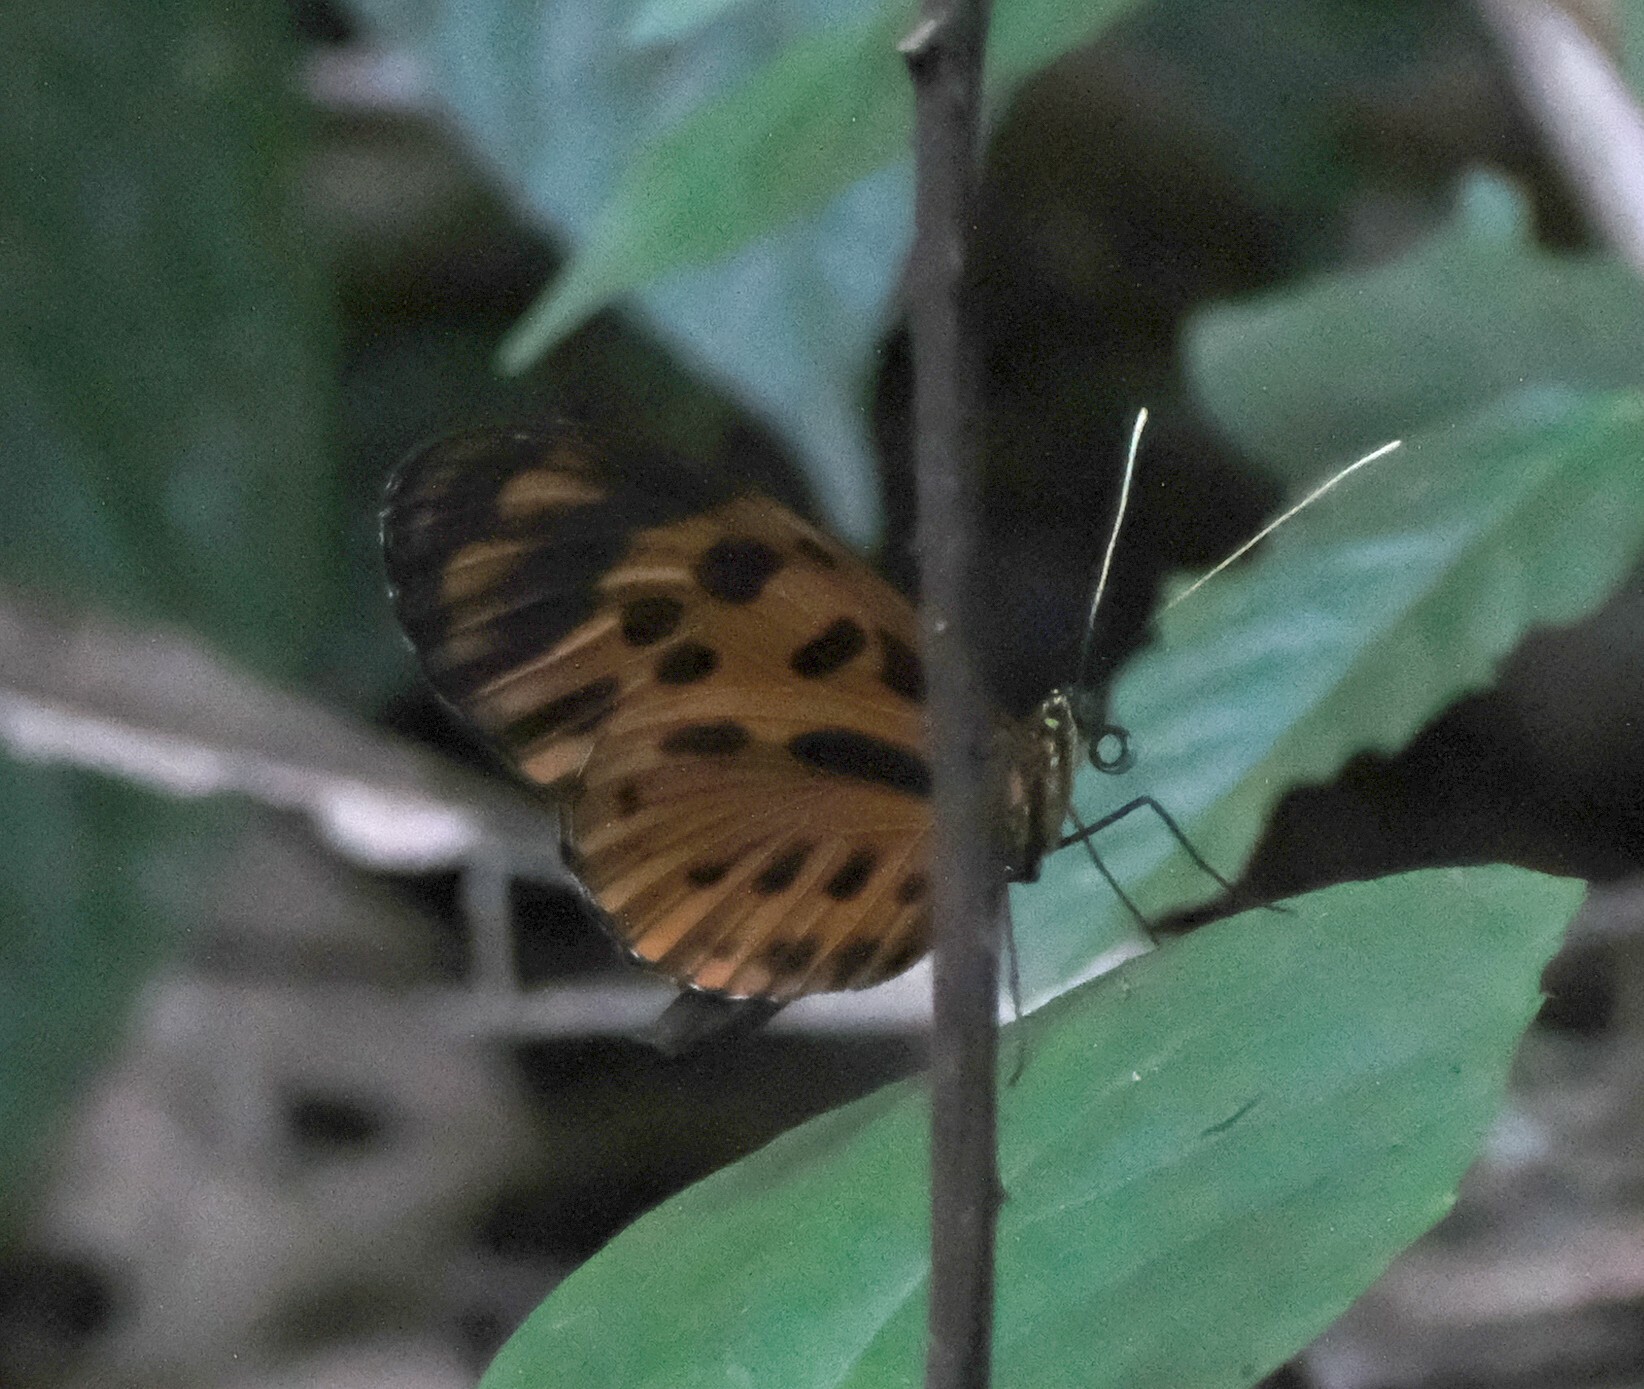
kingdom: Animalia
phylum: Arthropoda
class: Insecta
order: Lepidoptera
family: Nymphalidae
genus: Heliconius
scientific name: Heliconius numatus
